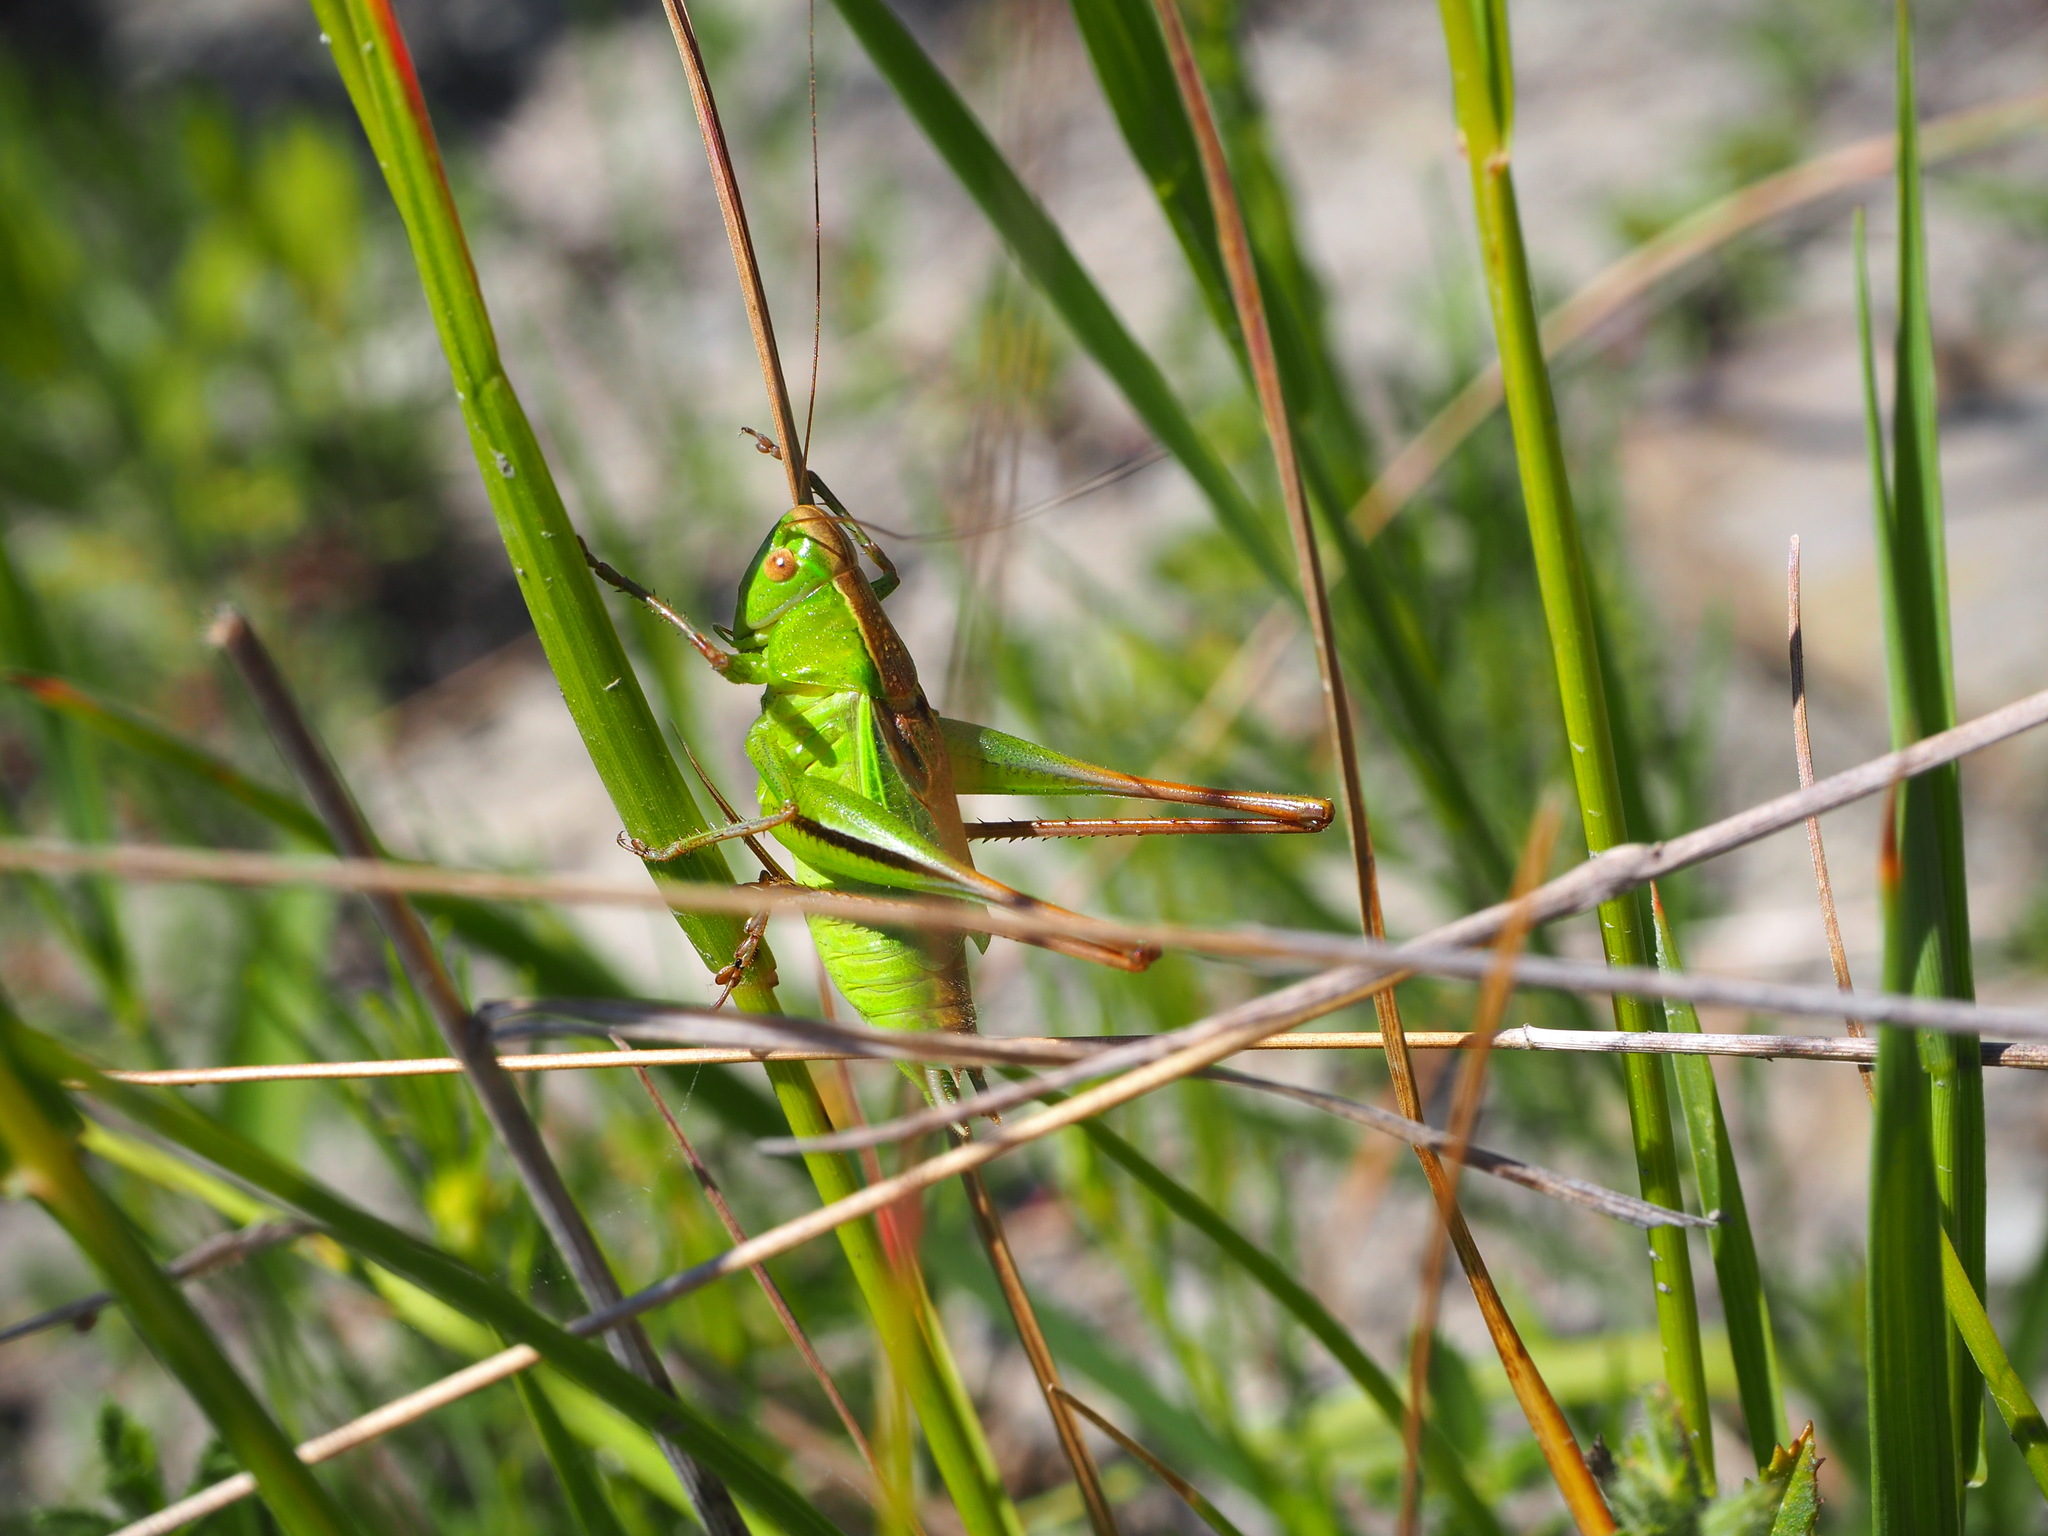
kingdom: Animalia
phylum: Arthropoda
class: Insecta
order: Orthoptera
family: Tettigoniidae
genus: Bicolorana
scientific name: Bicolorana bicolor
